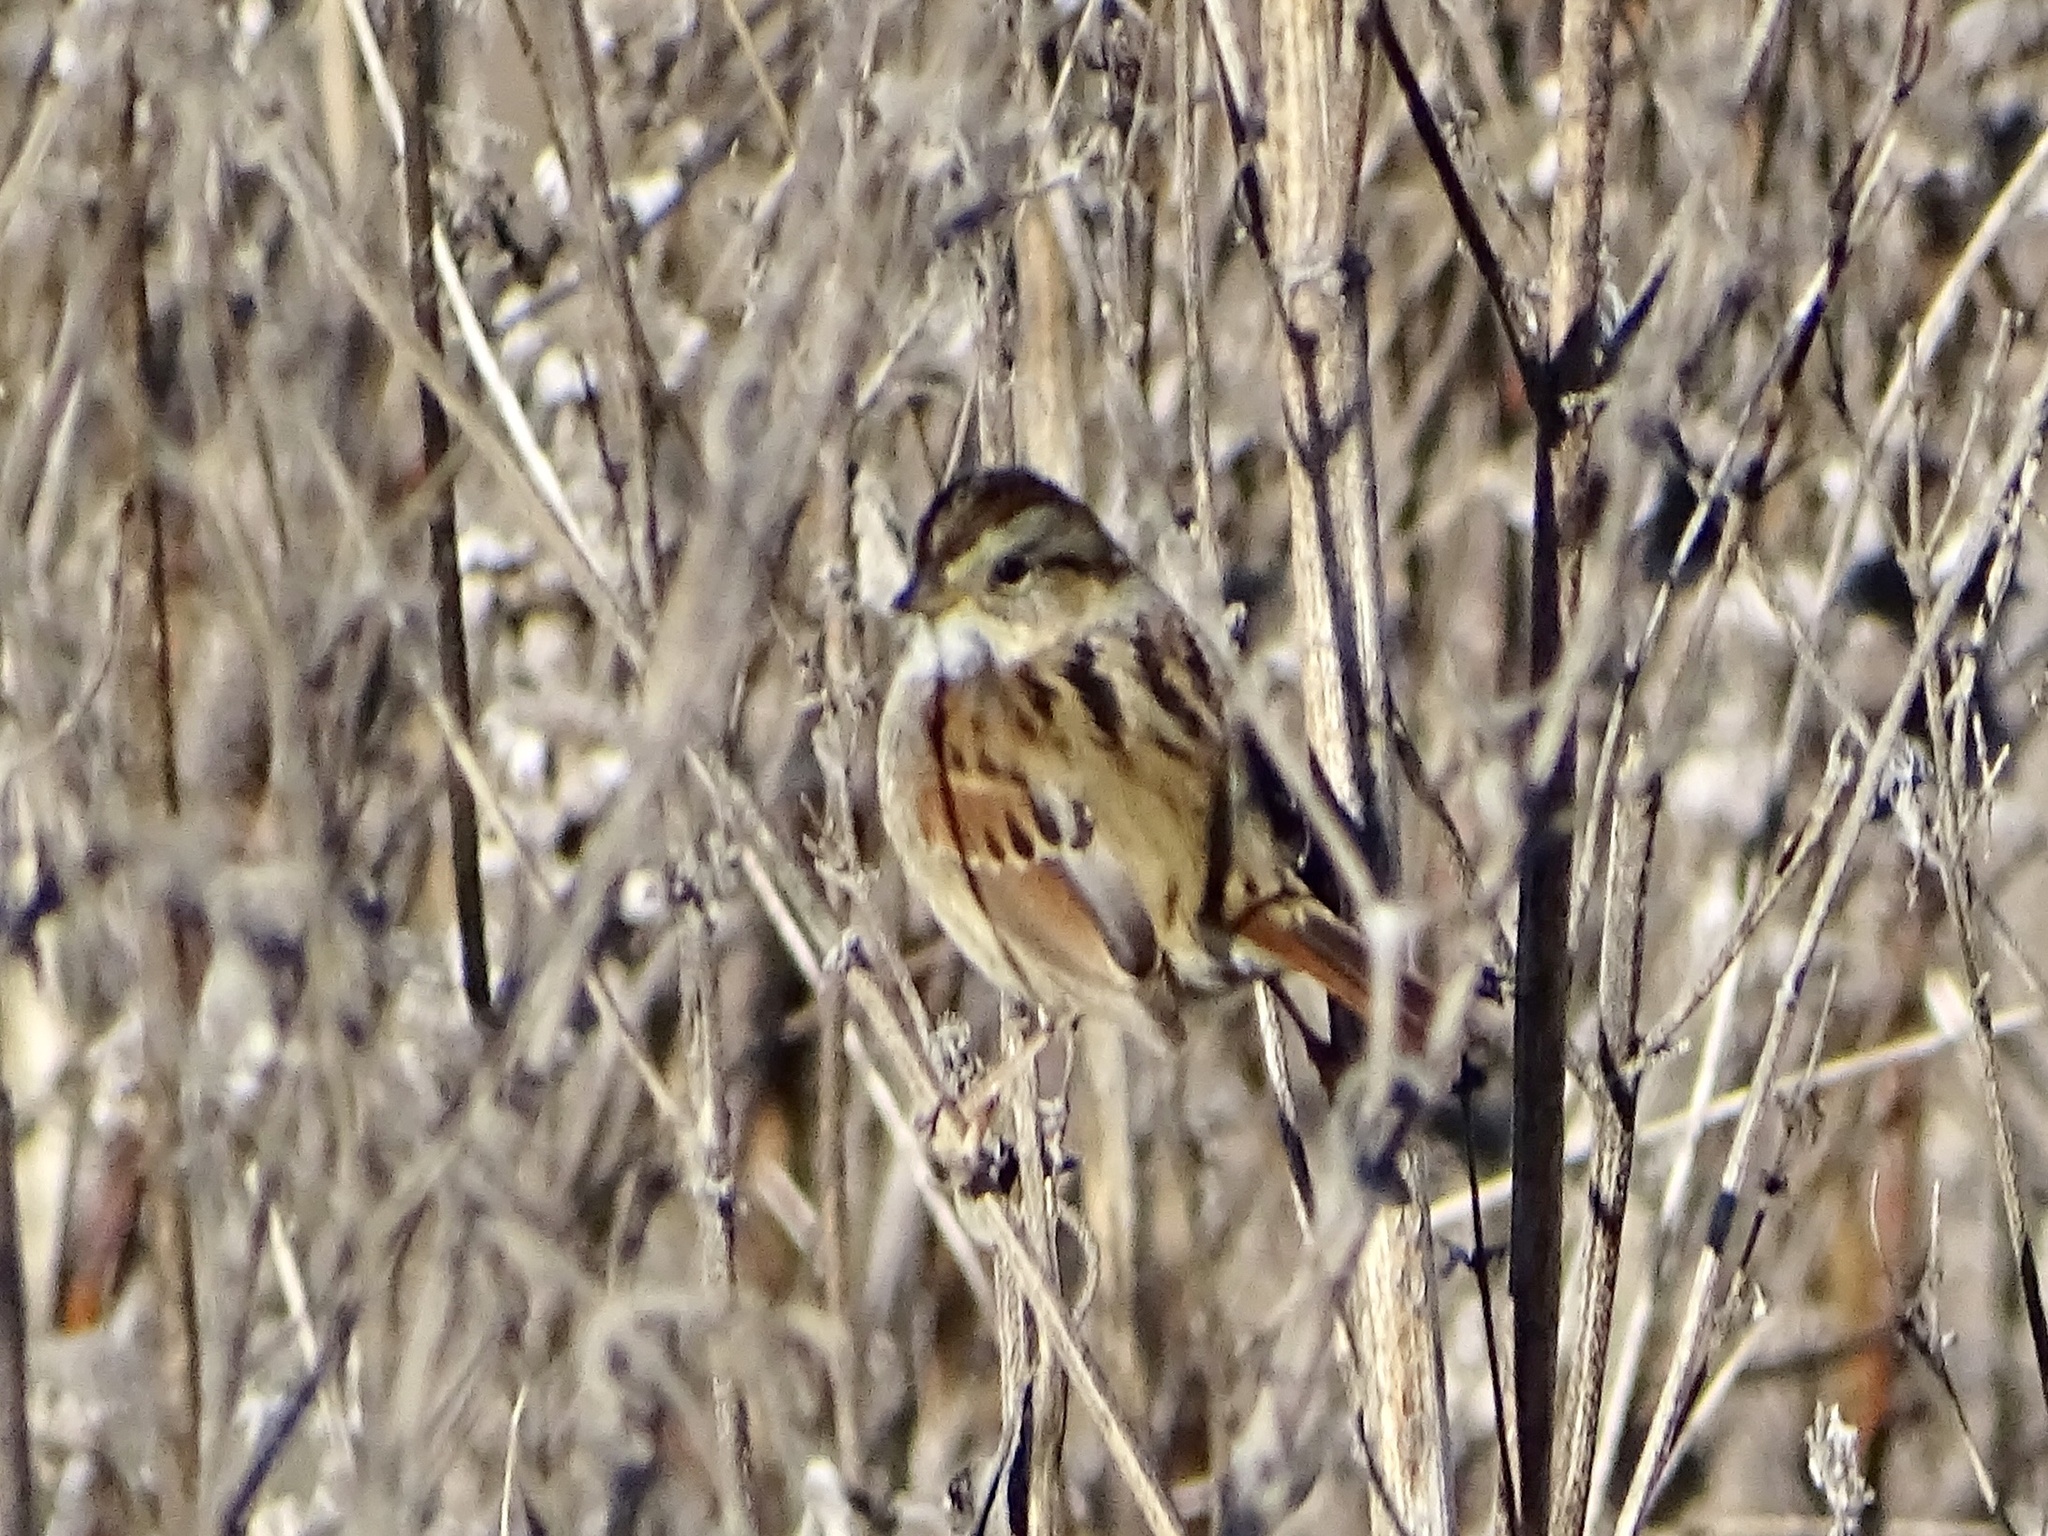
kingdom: Animalia
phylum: Chordata
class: Aves
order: Passeriformes
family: Passerellidae
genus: Melospiza
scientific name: Melospiza georgiana
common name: Swamp sparrow
